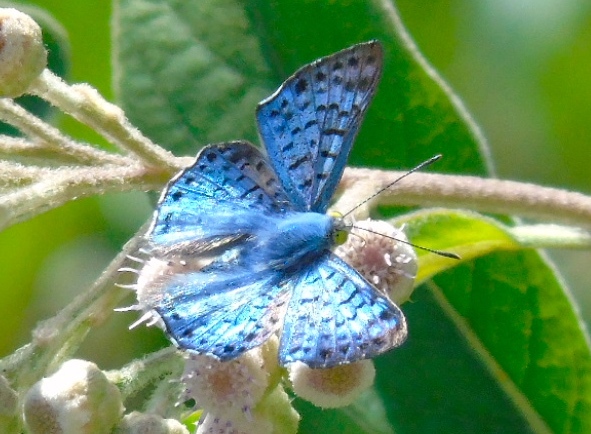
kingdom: Animalia
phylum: Arthropoda
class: Insecta
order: Lepidoptera
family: Riodinidae
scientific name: Riodinidae
